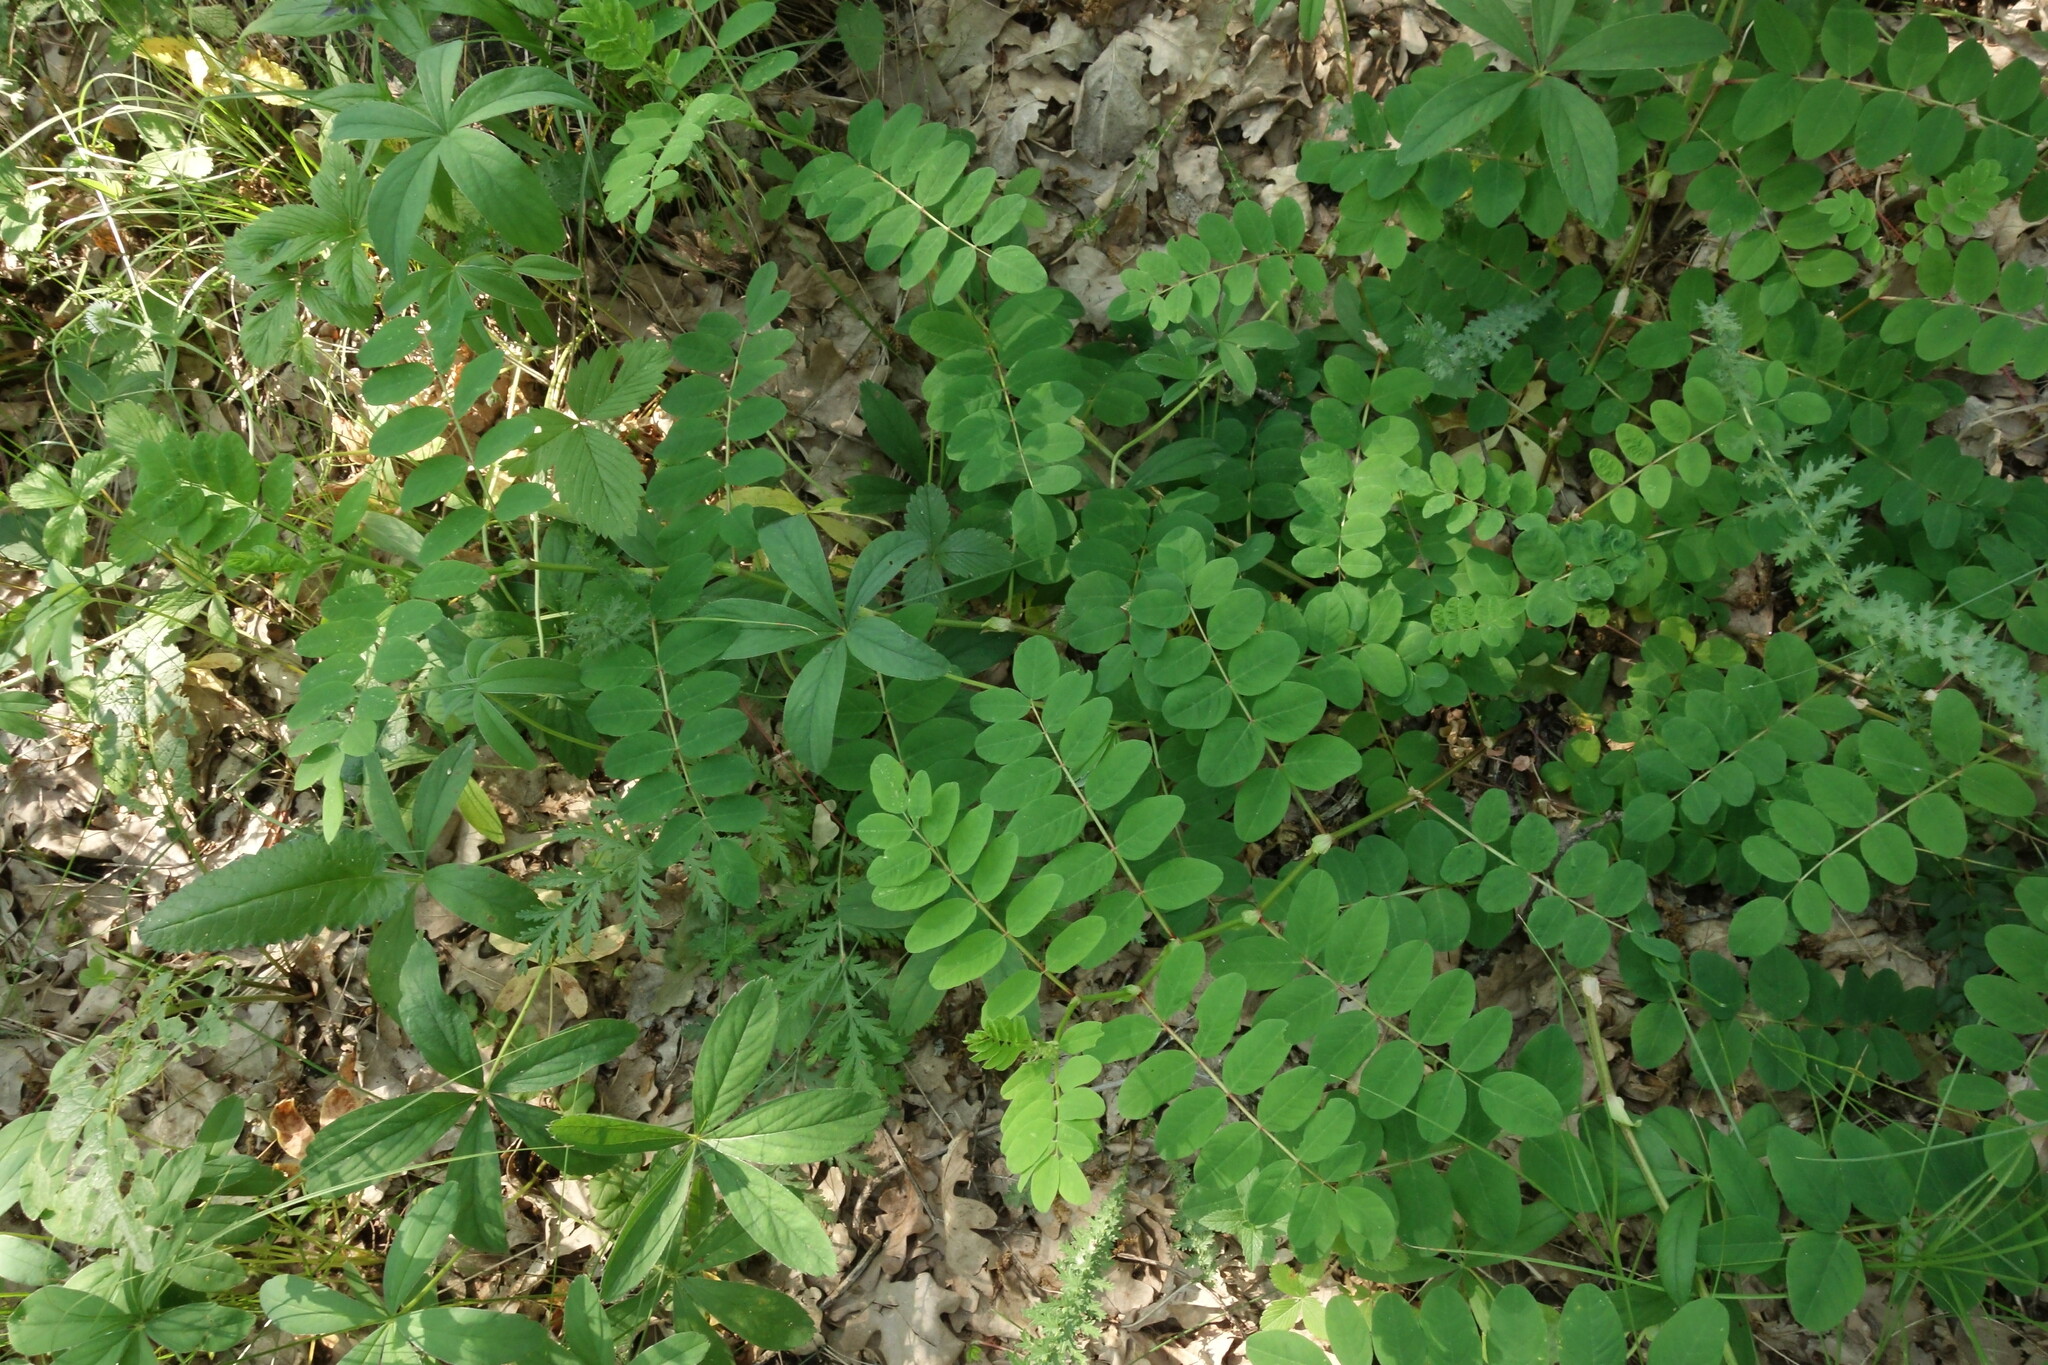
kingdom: Plantae
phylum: Tracheophyta
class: Magnoliopsida
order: Fabales
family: Fabaceae
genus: Astragalus
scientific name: Astragalus glycyphyllos
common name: Wild liquorice
